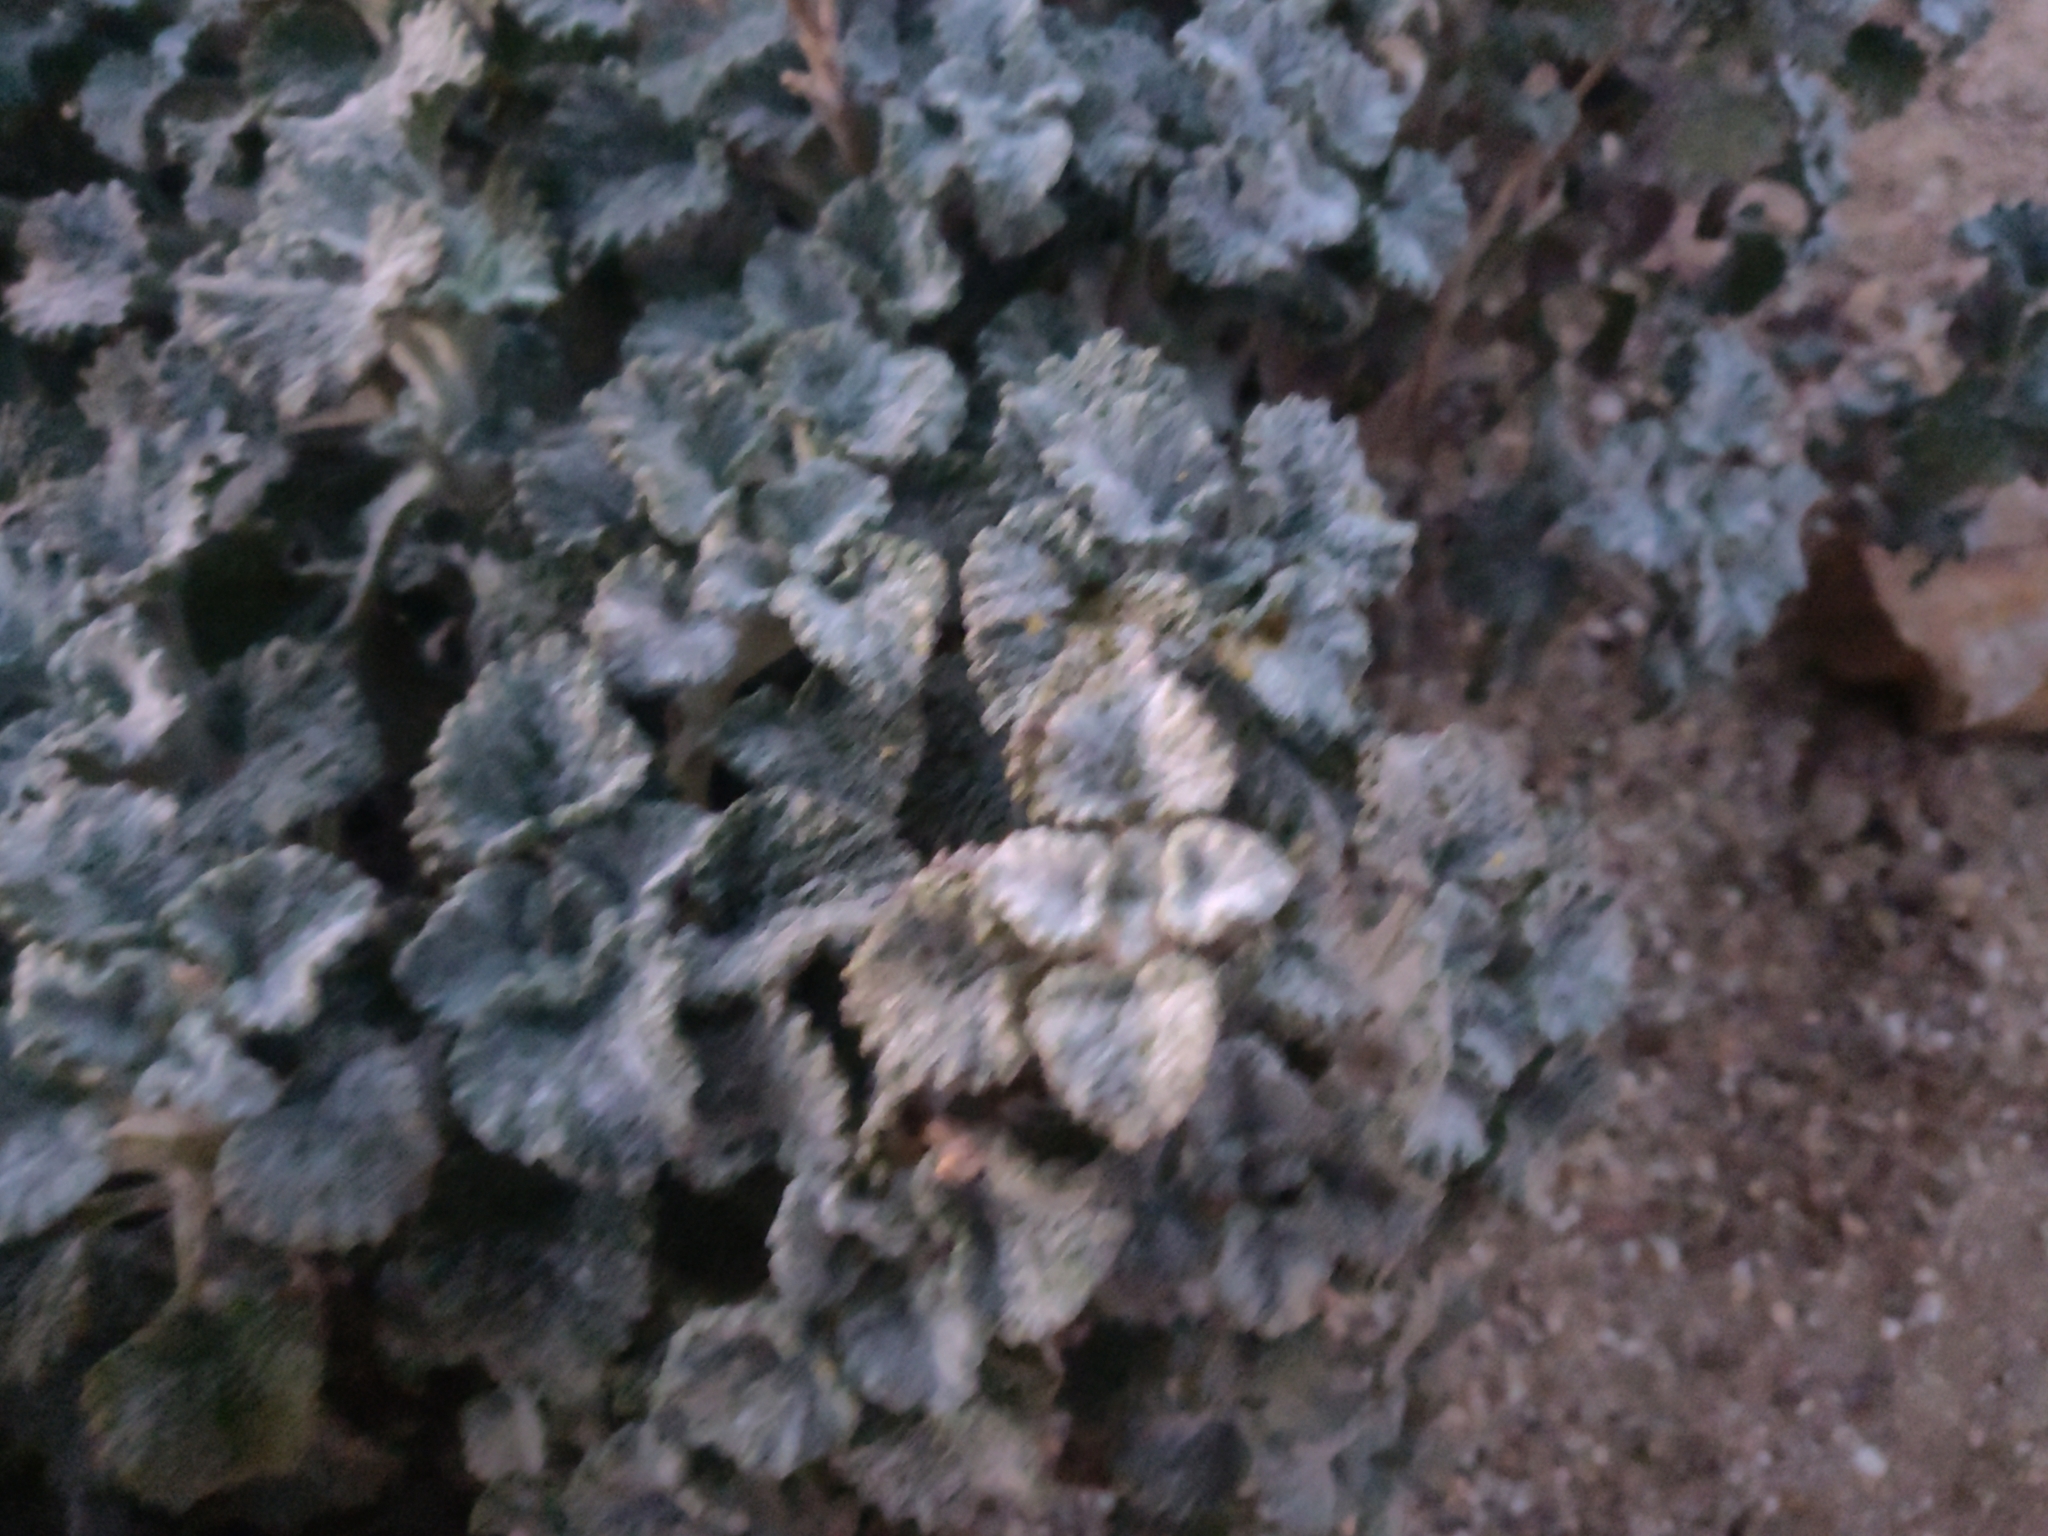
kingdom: Plantae
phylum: Tracheophyta
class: Magnoliopsida
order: Lamiales
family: Lamiaceae
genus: Marrubium
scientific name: Marrubium vulgare
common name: Horehound
